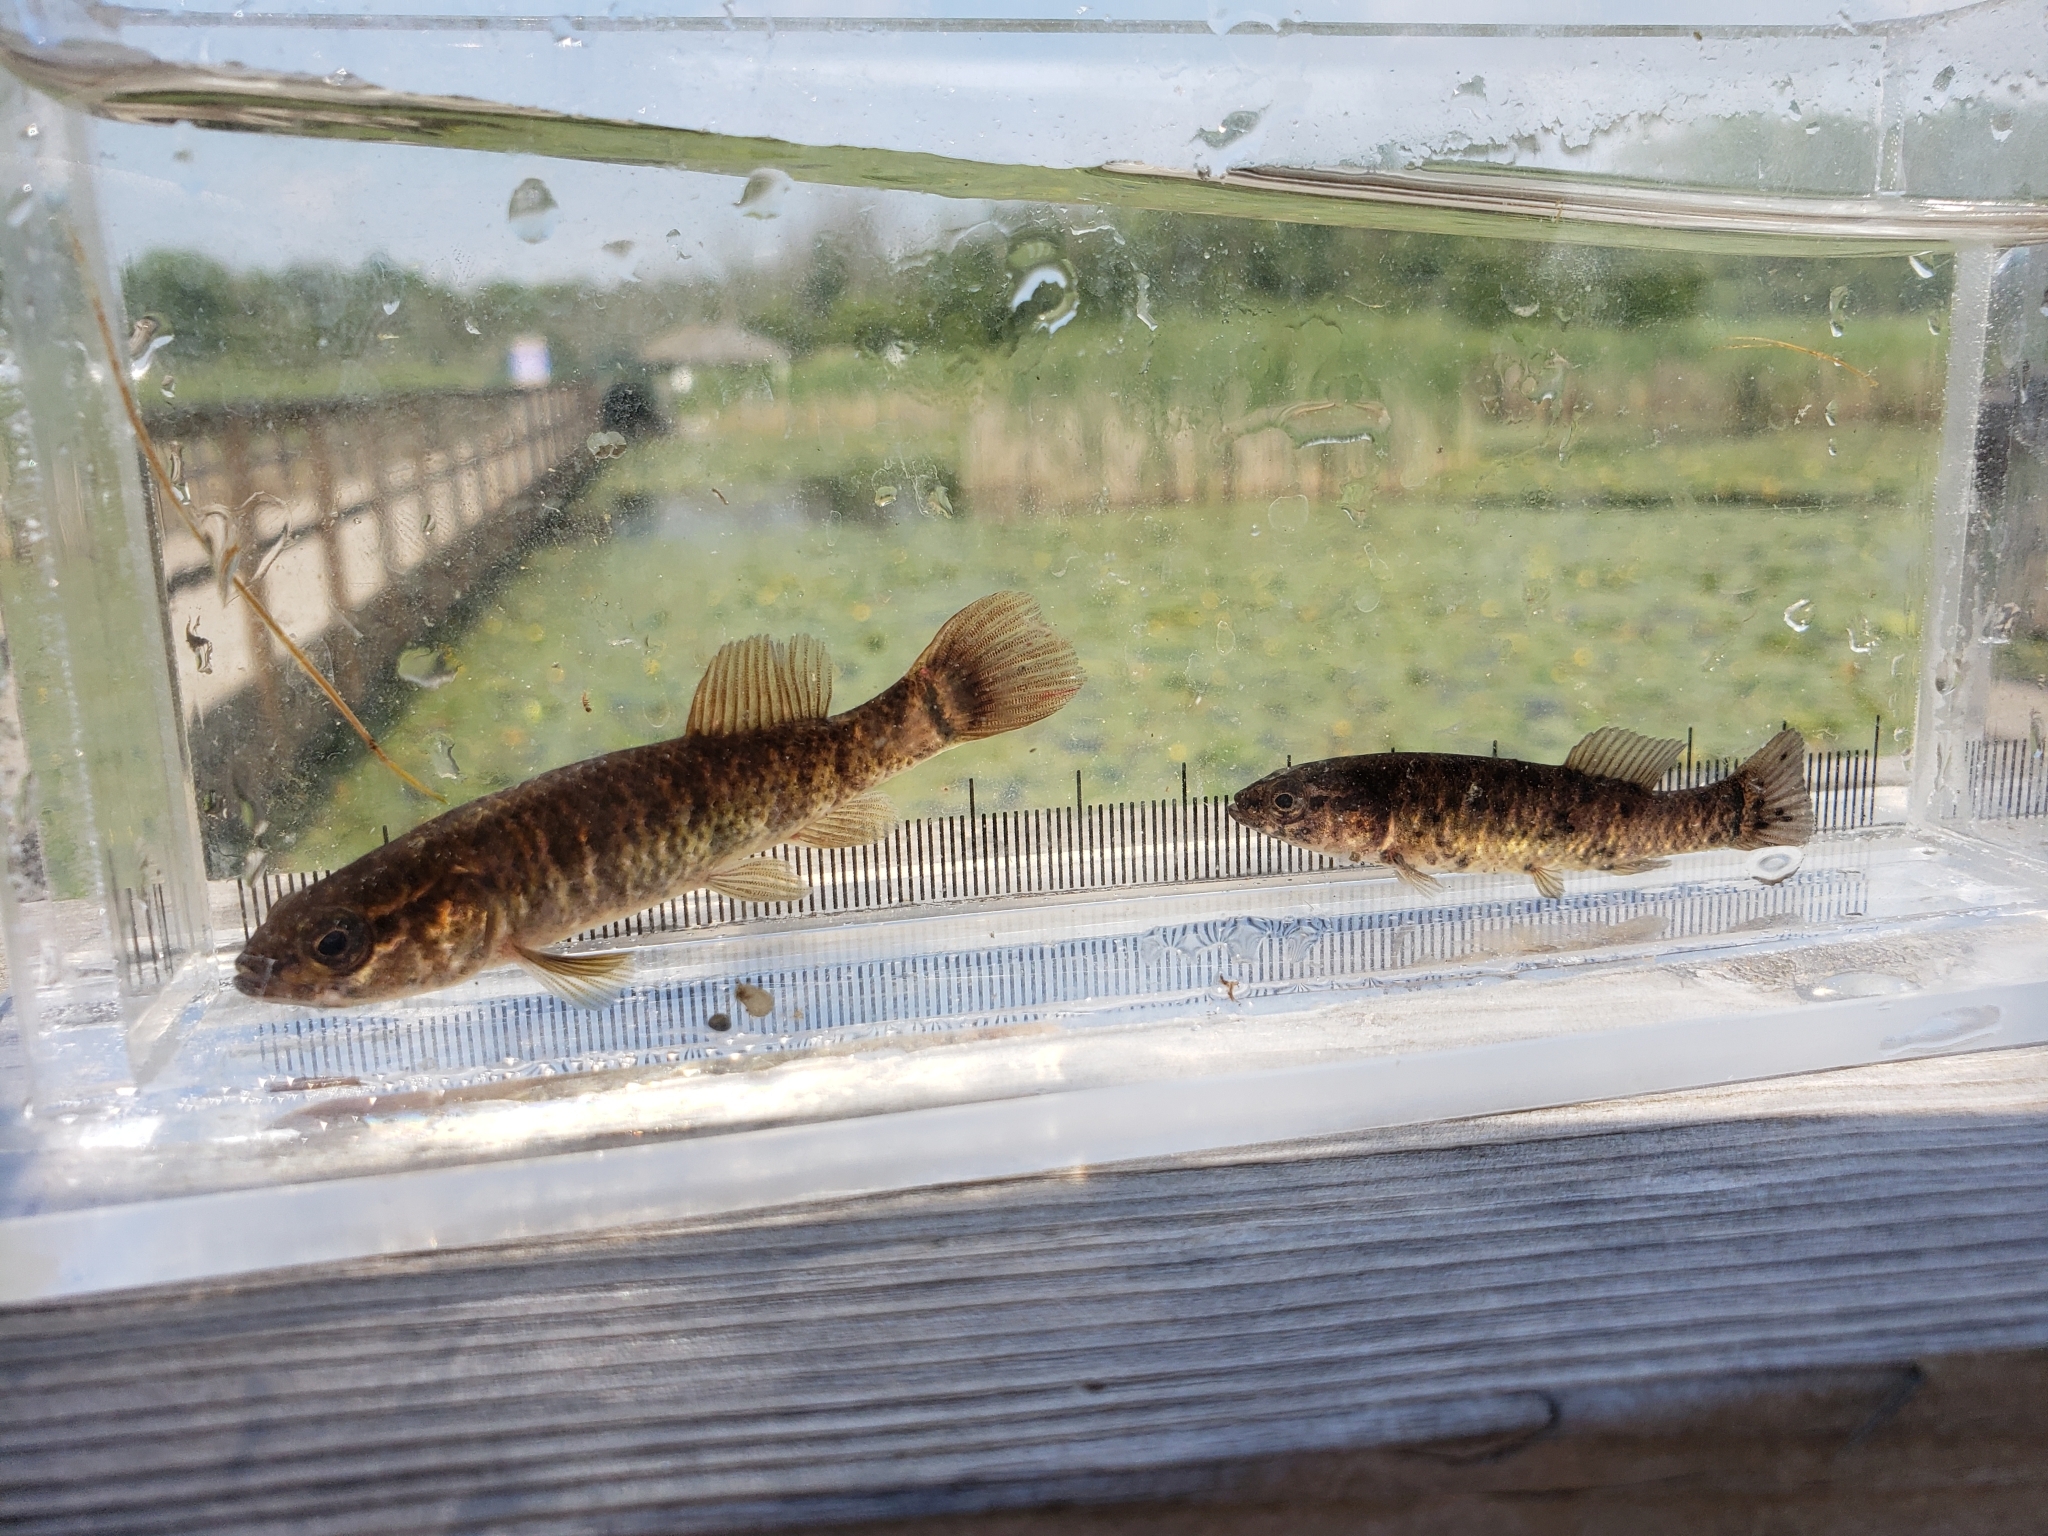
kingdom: Animalia
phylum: Chordata
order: Esociformes
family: Umbridae
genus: Umbra
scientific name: Umbra limi
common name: Central mudminnow
